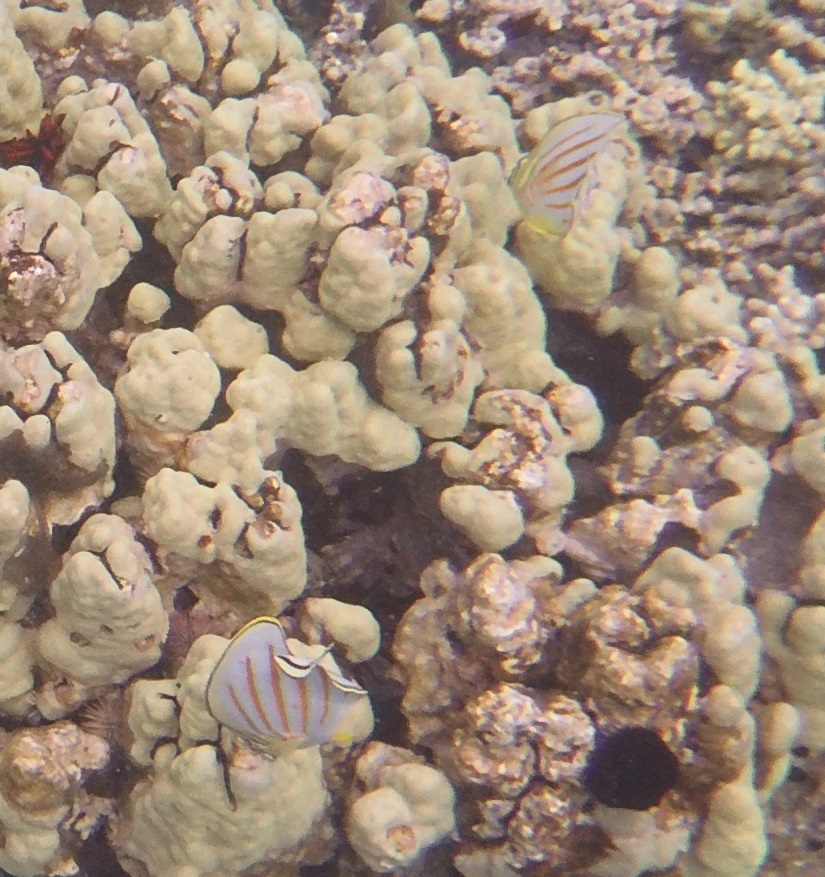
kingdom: Animalia
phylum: Chordata
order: Perciformes
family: Chaetodontidae
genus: Chaetodon
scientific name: Chaetodon ornatissimus
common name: Ornate butterflyfish
